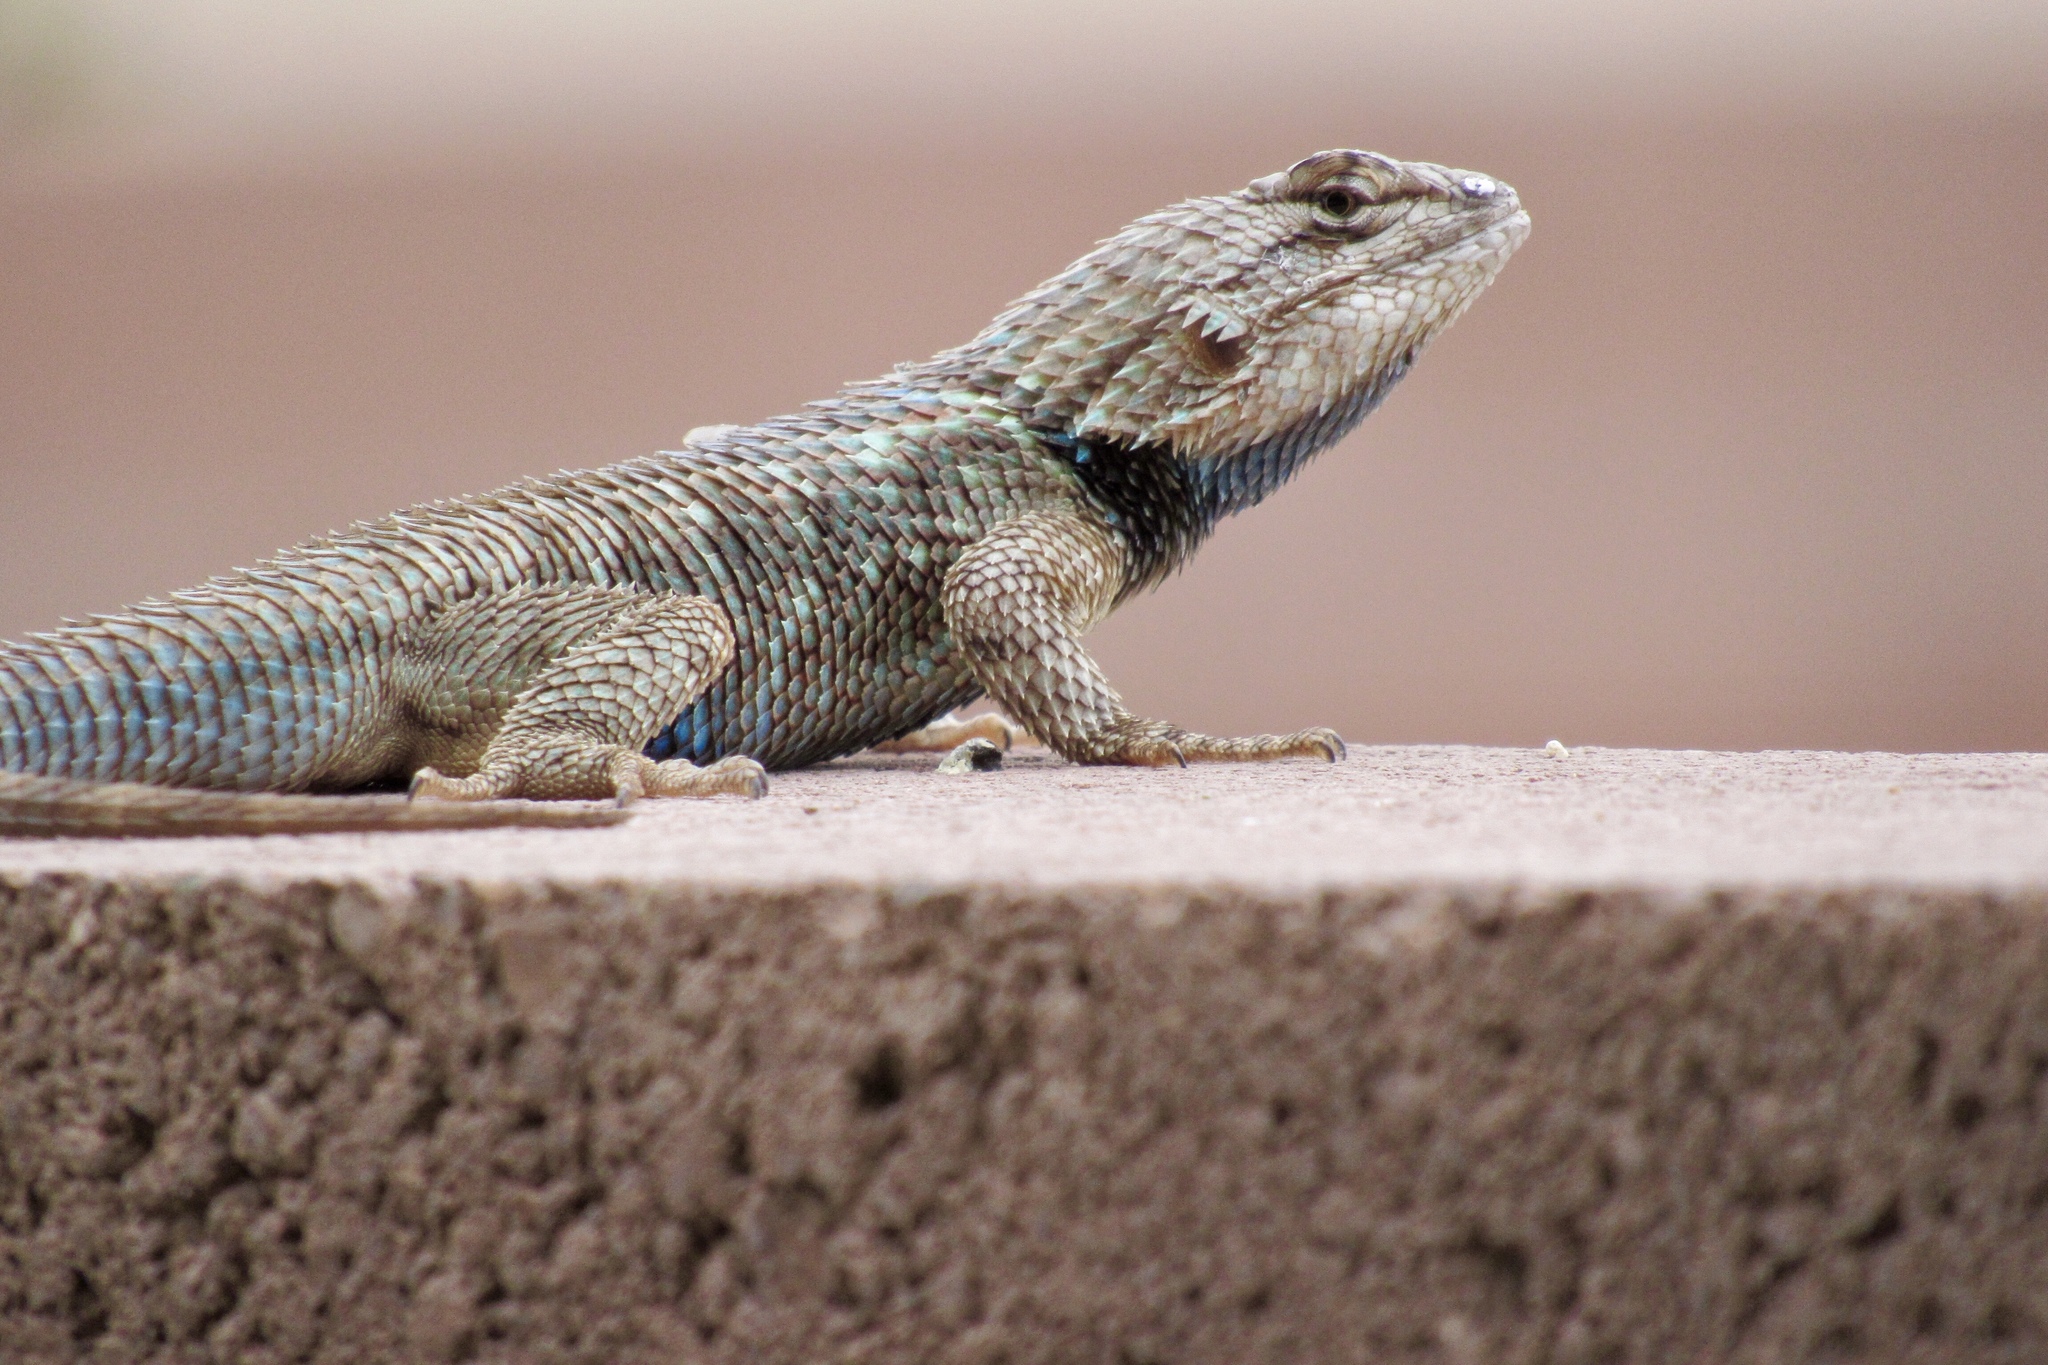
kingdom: Animalia
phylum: Chordata
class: Squamata
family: Phrynosomatidae
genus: Sceloporus
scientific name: Sceloporus clarkii
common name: Clark's spiny lizard
